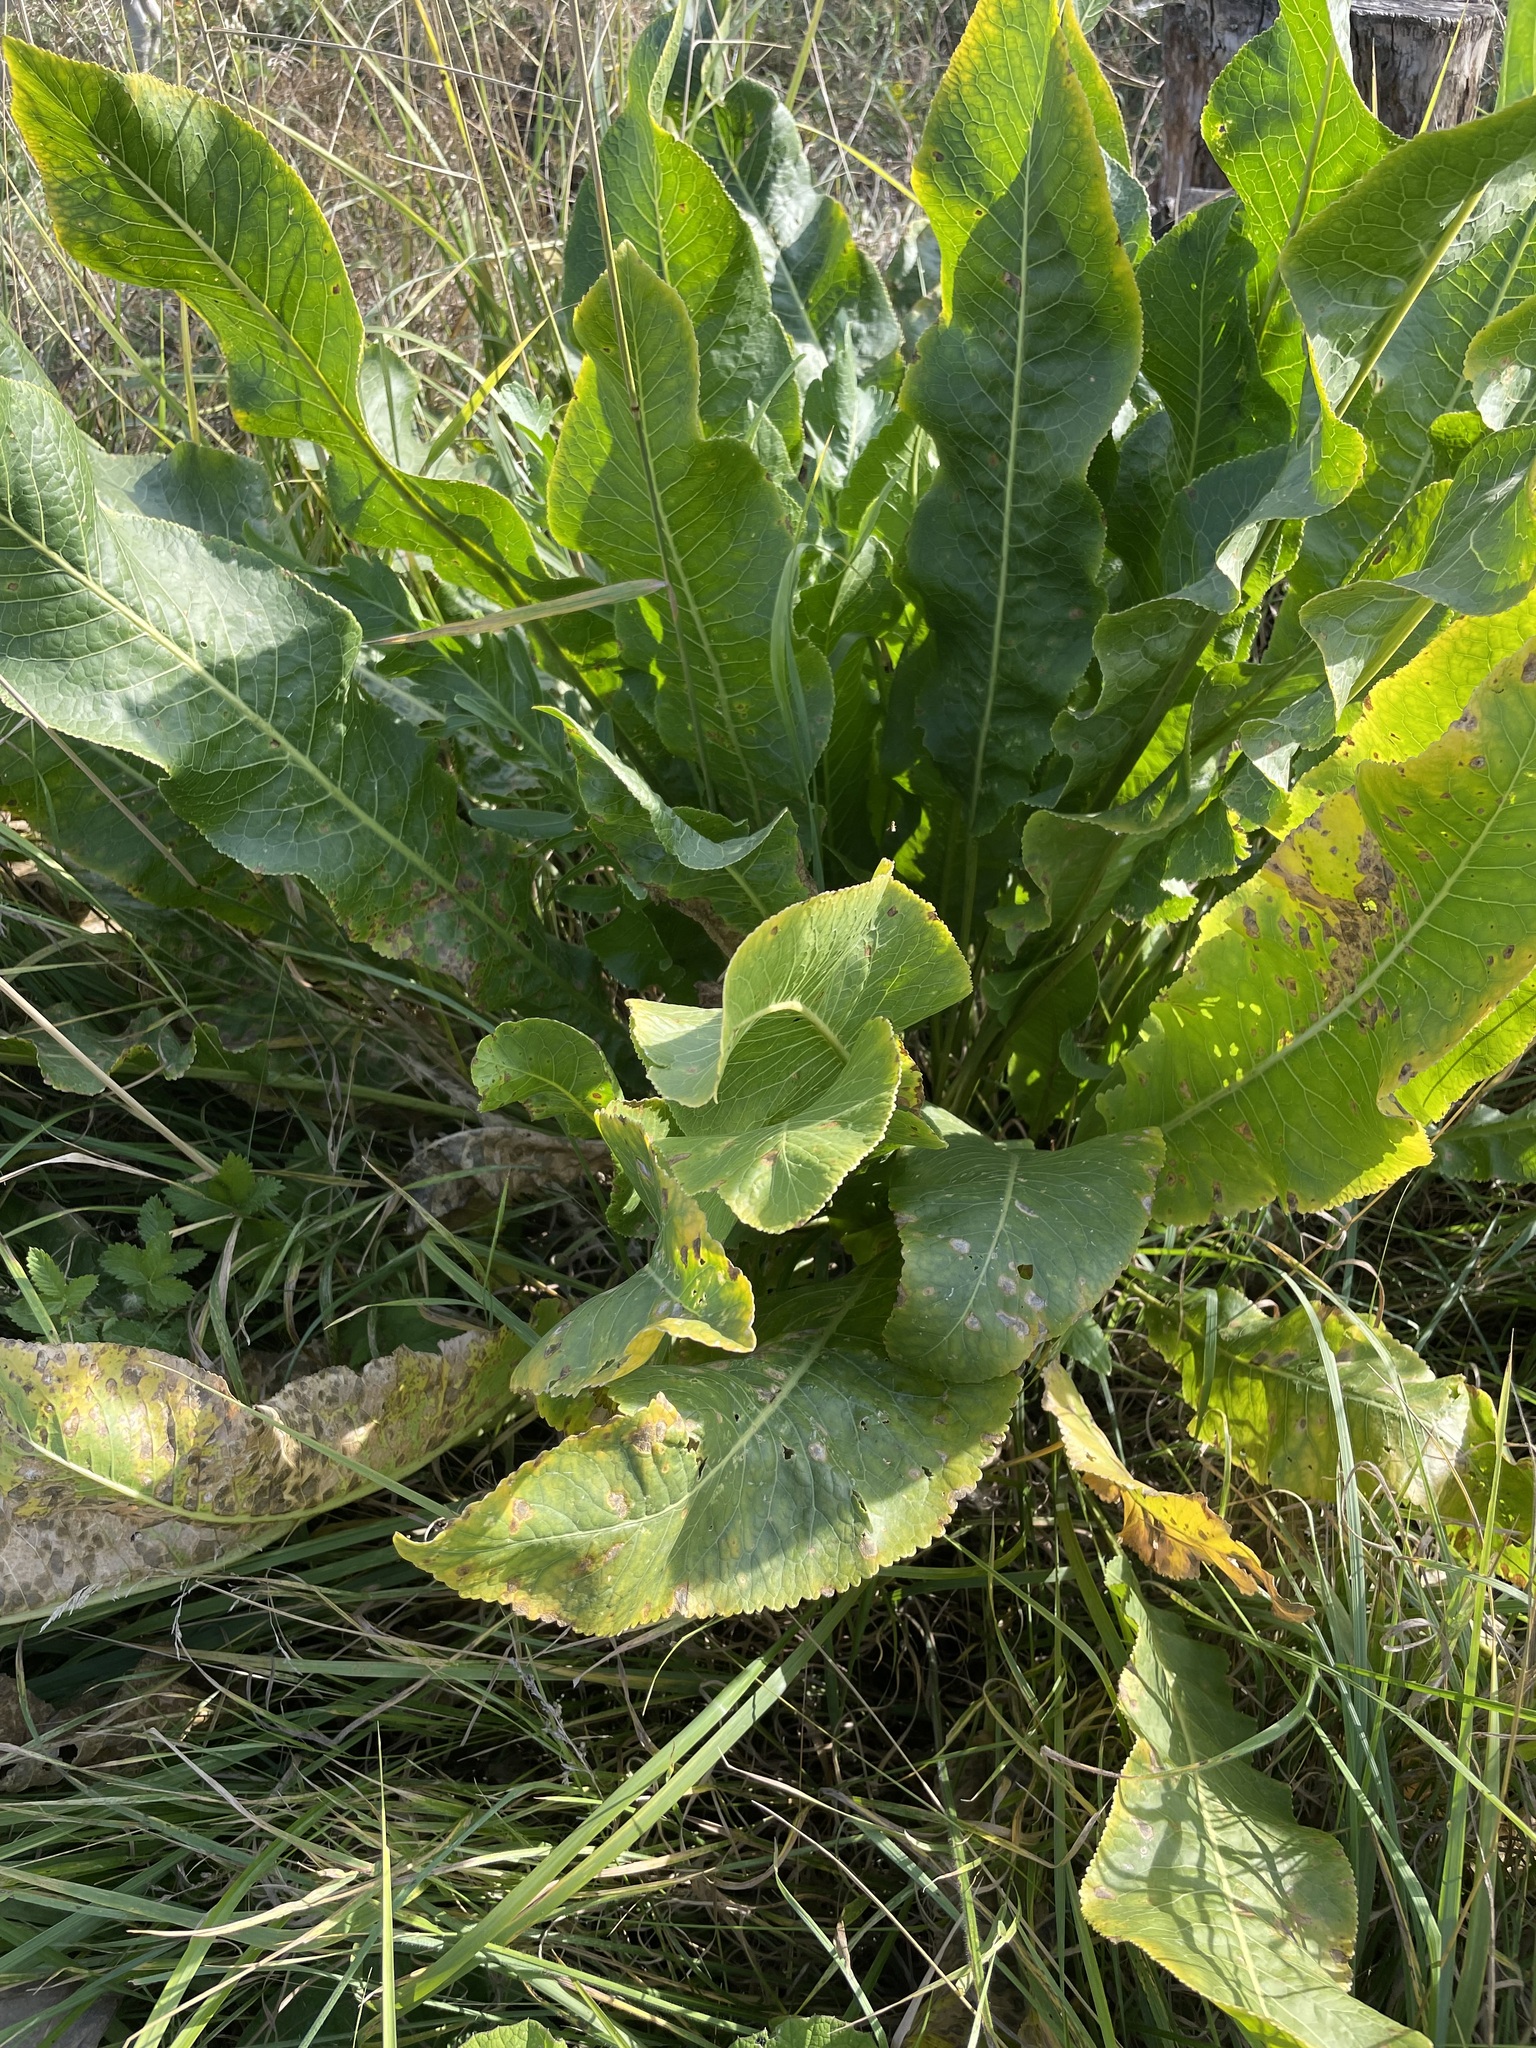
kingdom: Plantae
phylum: Tracheophyta
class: Magnoliopsida
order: Brassicales
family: Brassicaceae
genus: Armoracia
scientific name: Armoracia rusticana
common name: Horseradish
